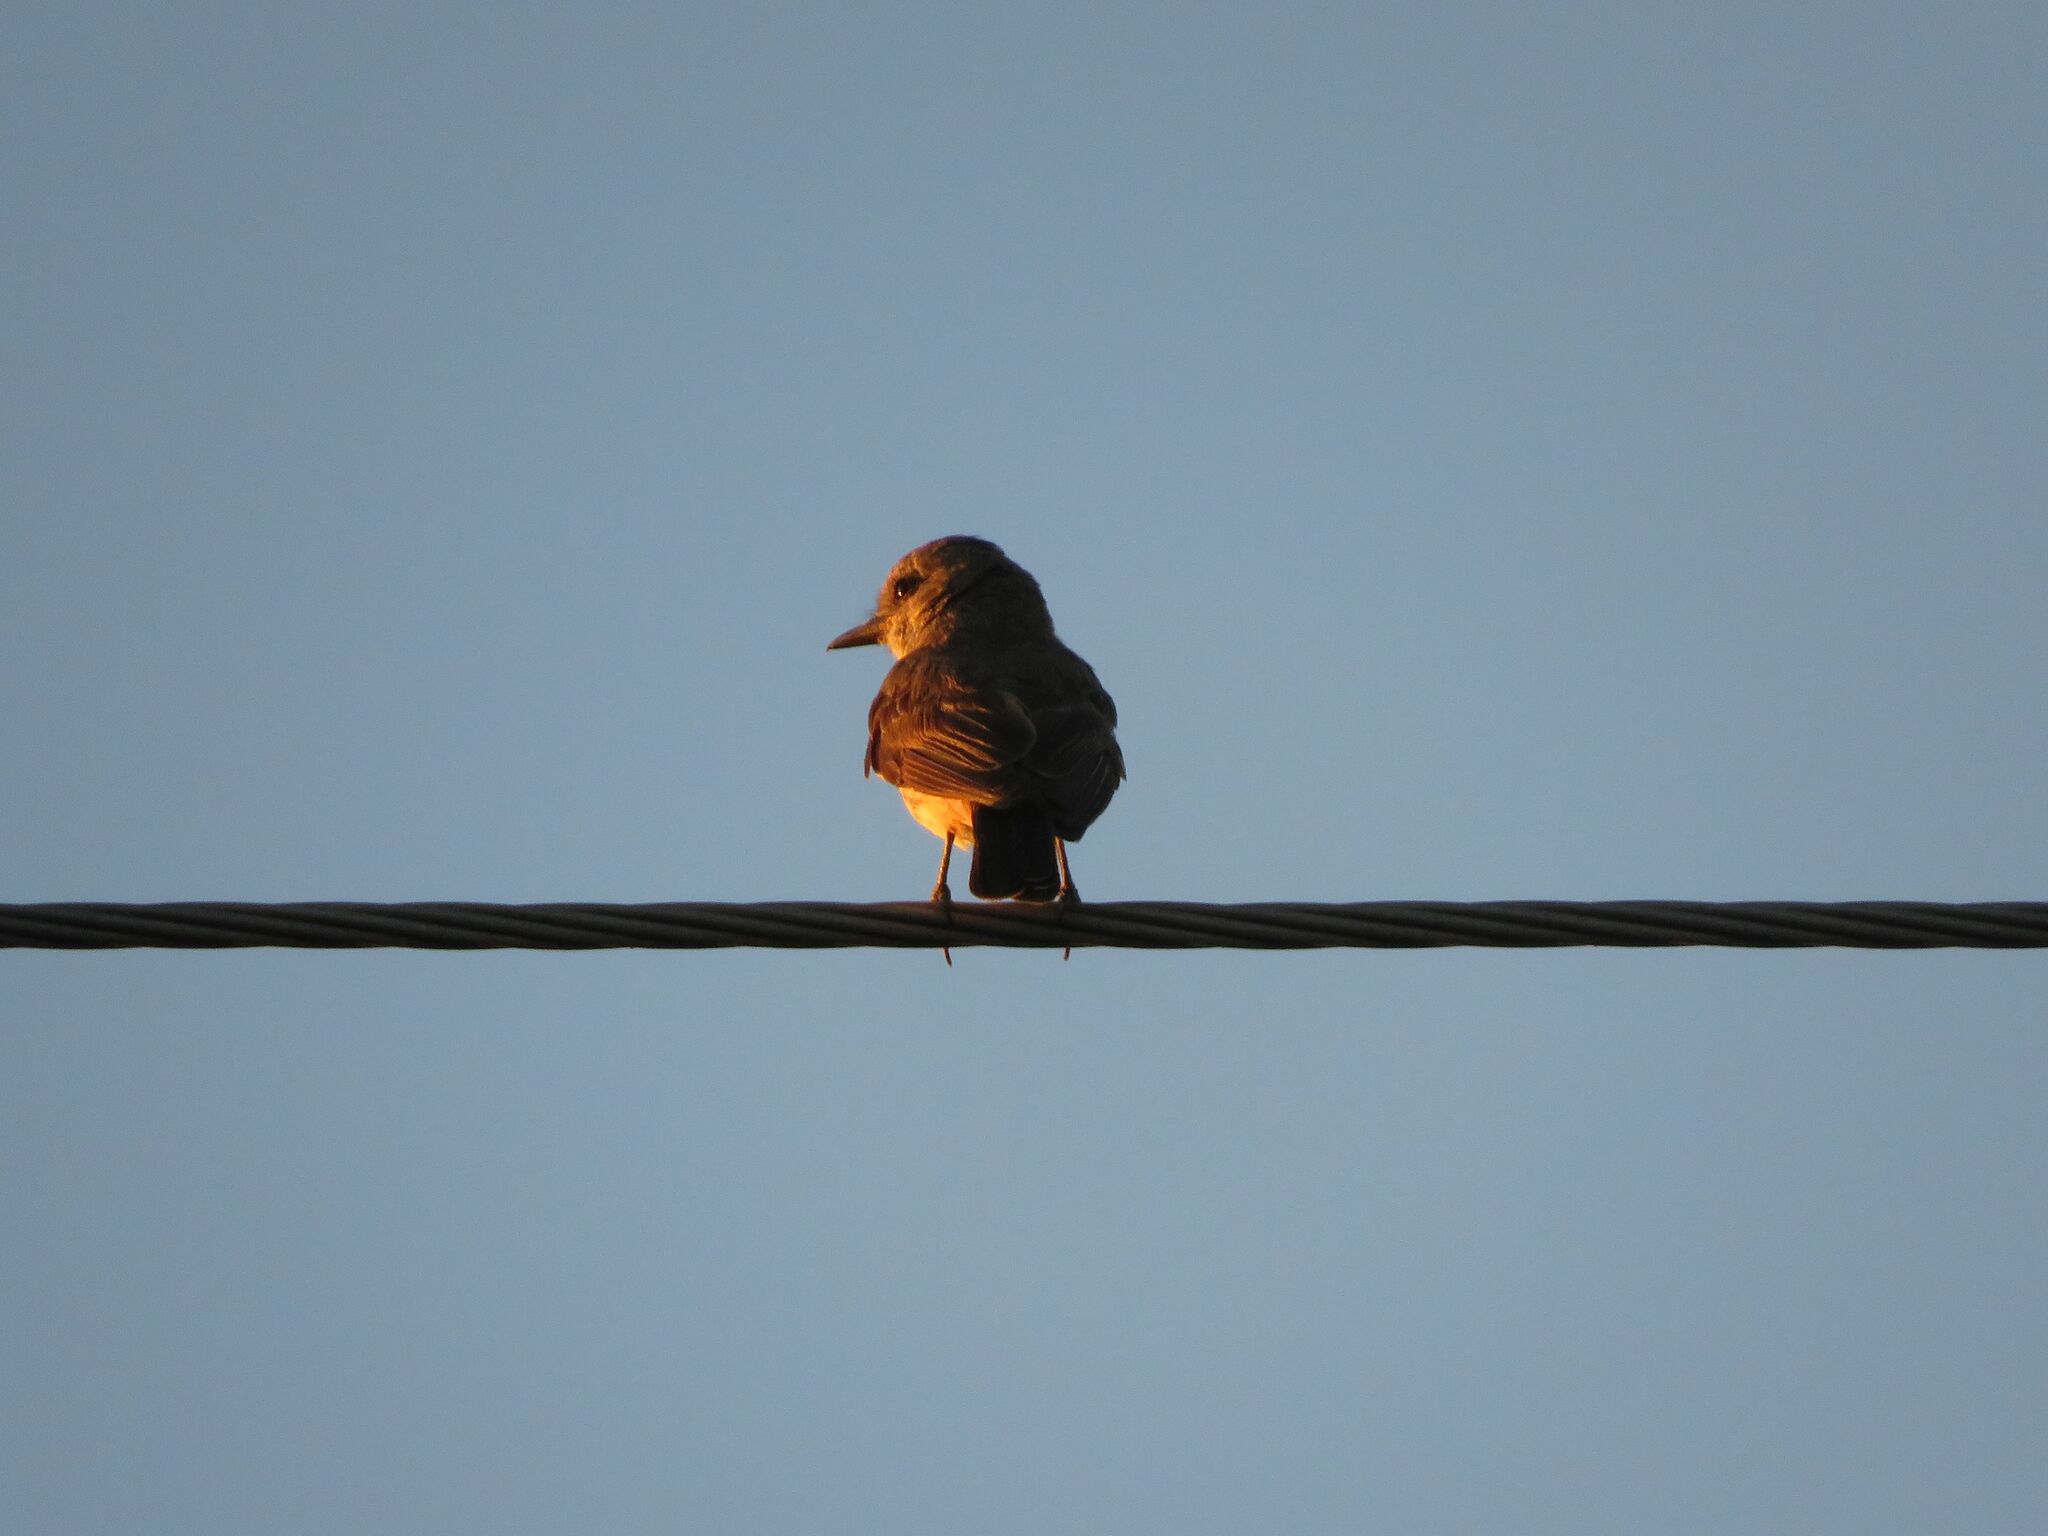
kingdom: Animalia
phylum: Chordata
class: Aves
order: Passeriformes
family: Tyrannidae
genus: Pyrocephalus
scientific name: Pyrocephalus rubinus
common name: Vermilion flycatcher
